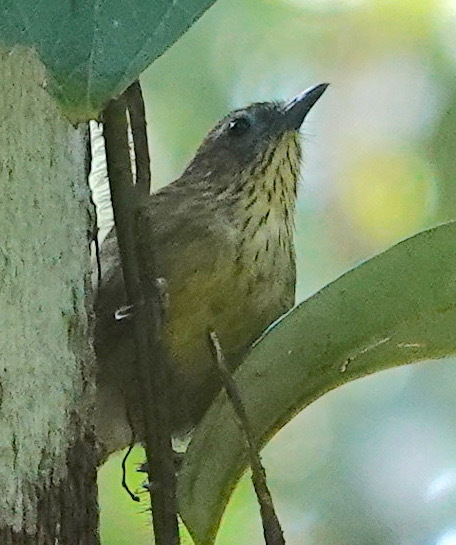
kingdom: Animalia
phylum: Chordata
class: Aves
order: Passeriformes
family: Timaliidae
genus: Macronus
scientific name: Macronus gularis
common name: Striped tit-babbler
